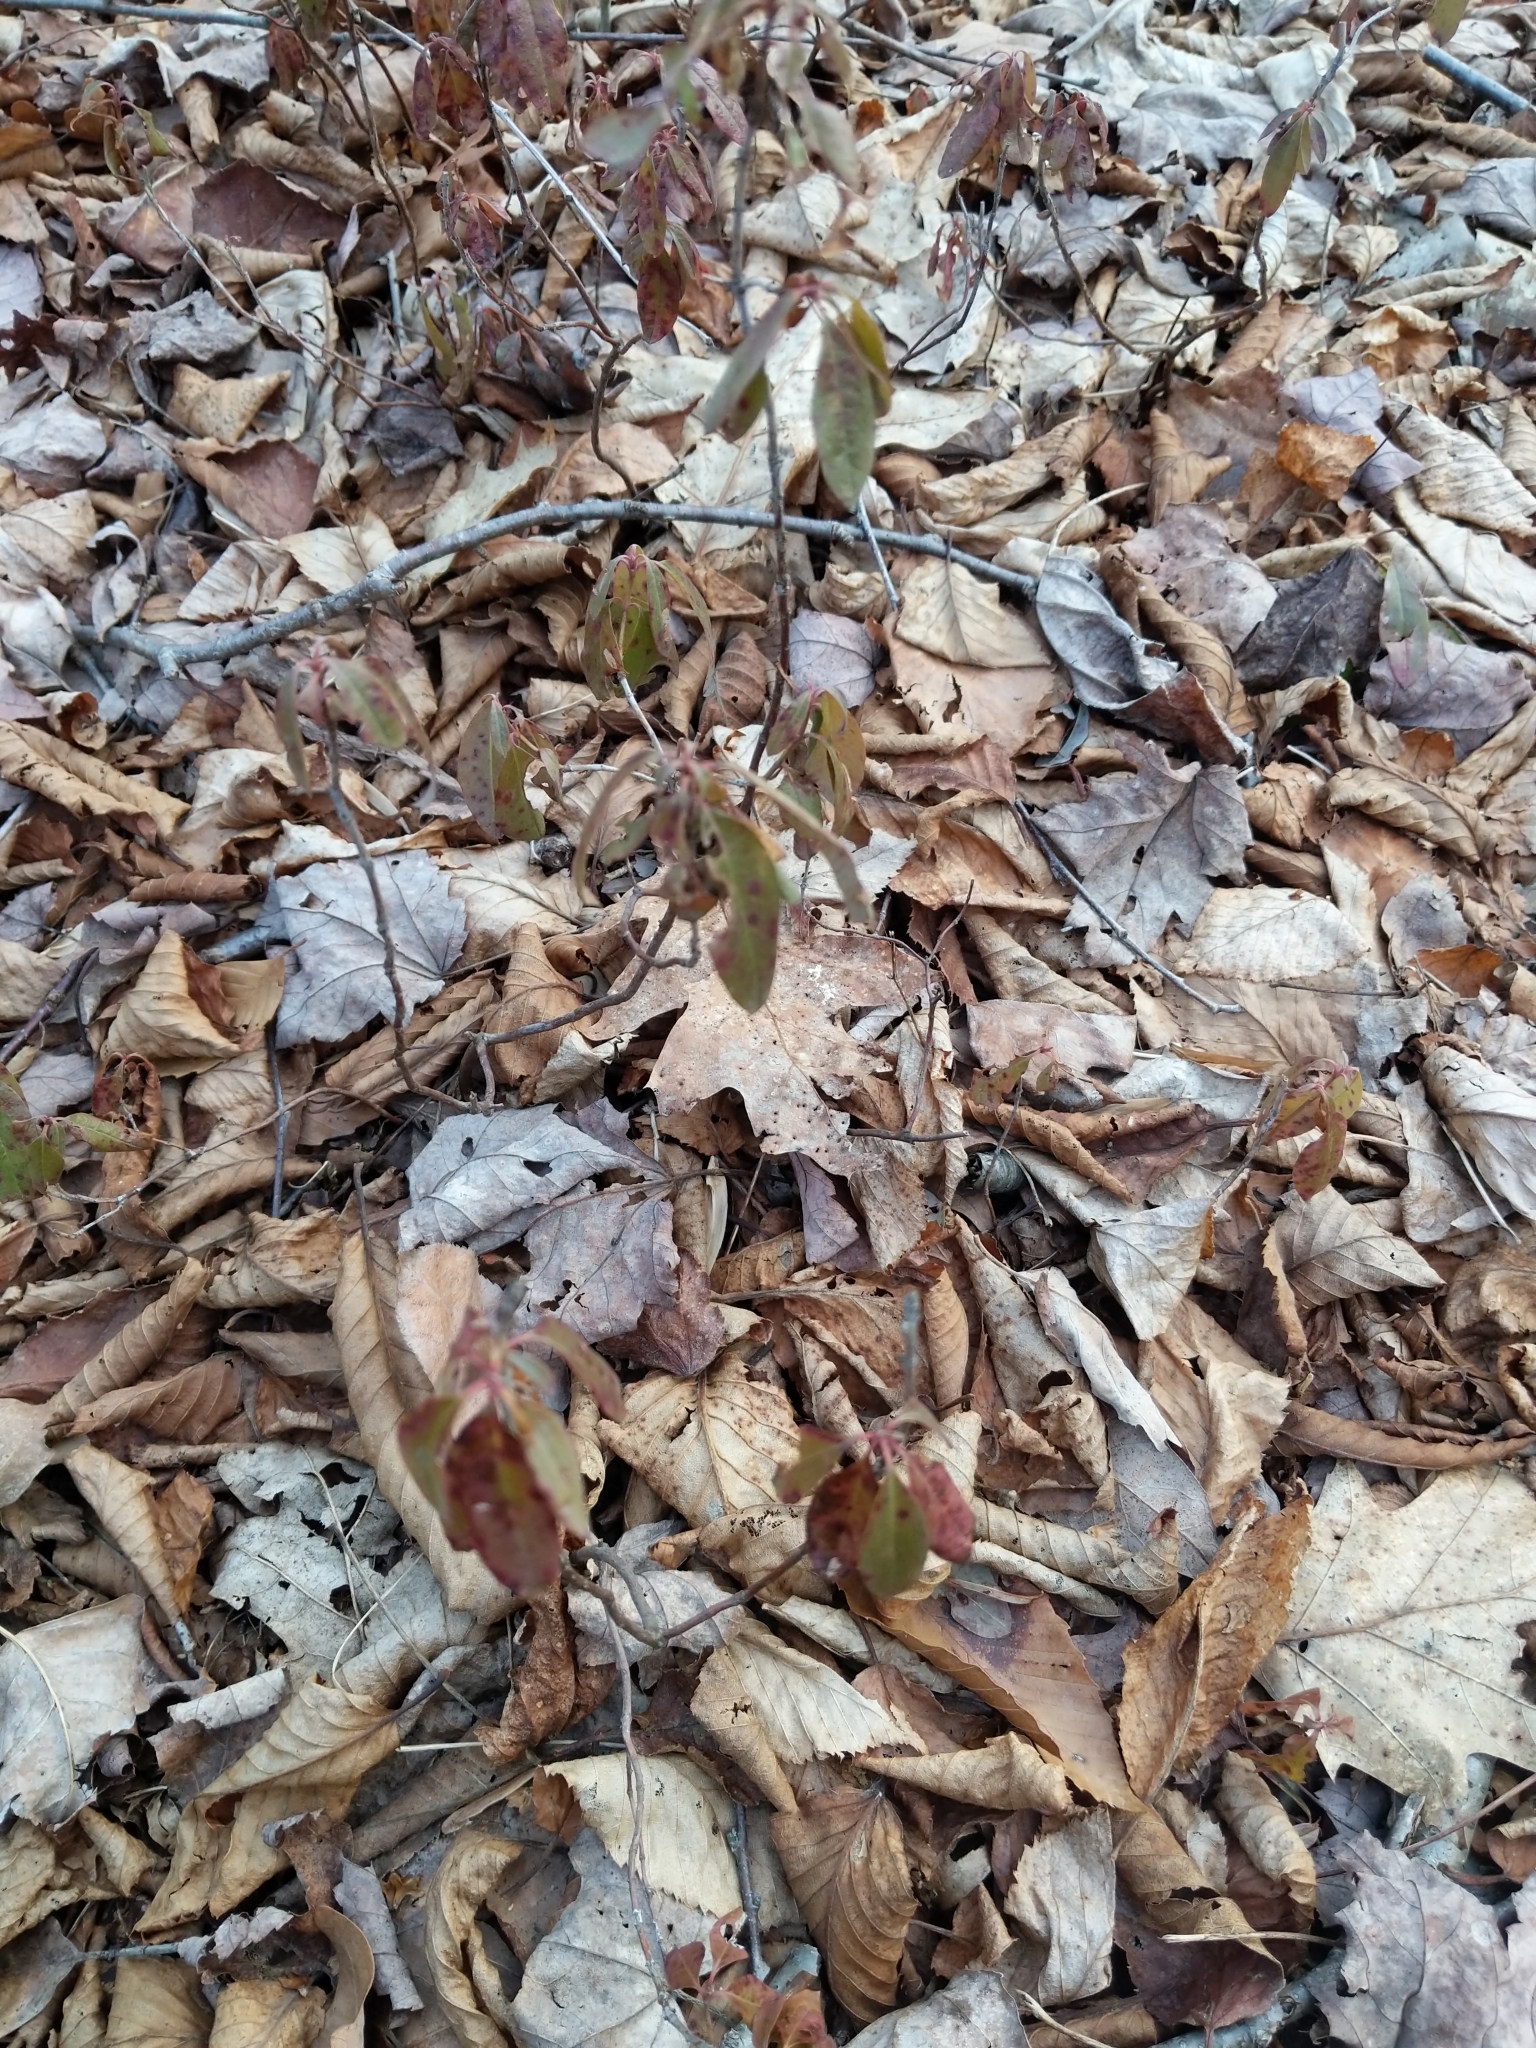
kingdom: Plantae
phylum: Tracheophyta
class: Magnoliopsida
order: Ericales
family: Ericaceae
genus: Kalmia
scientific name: Kalmia angustifolia
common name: Sheep-laurel
